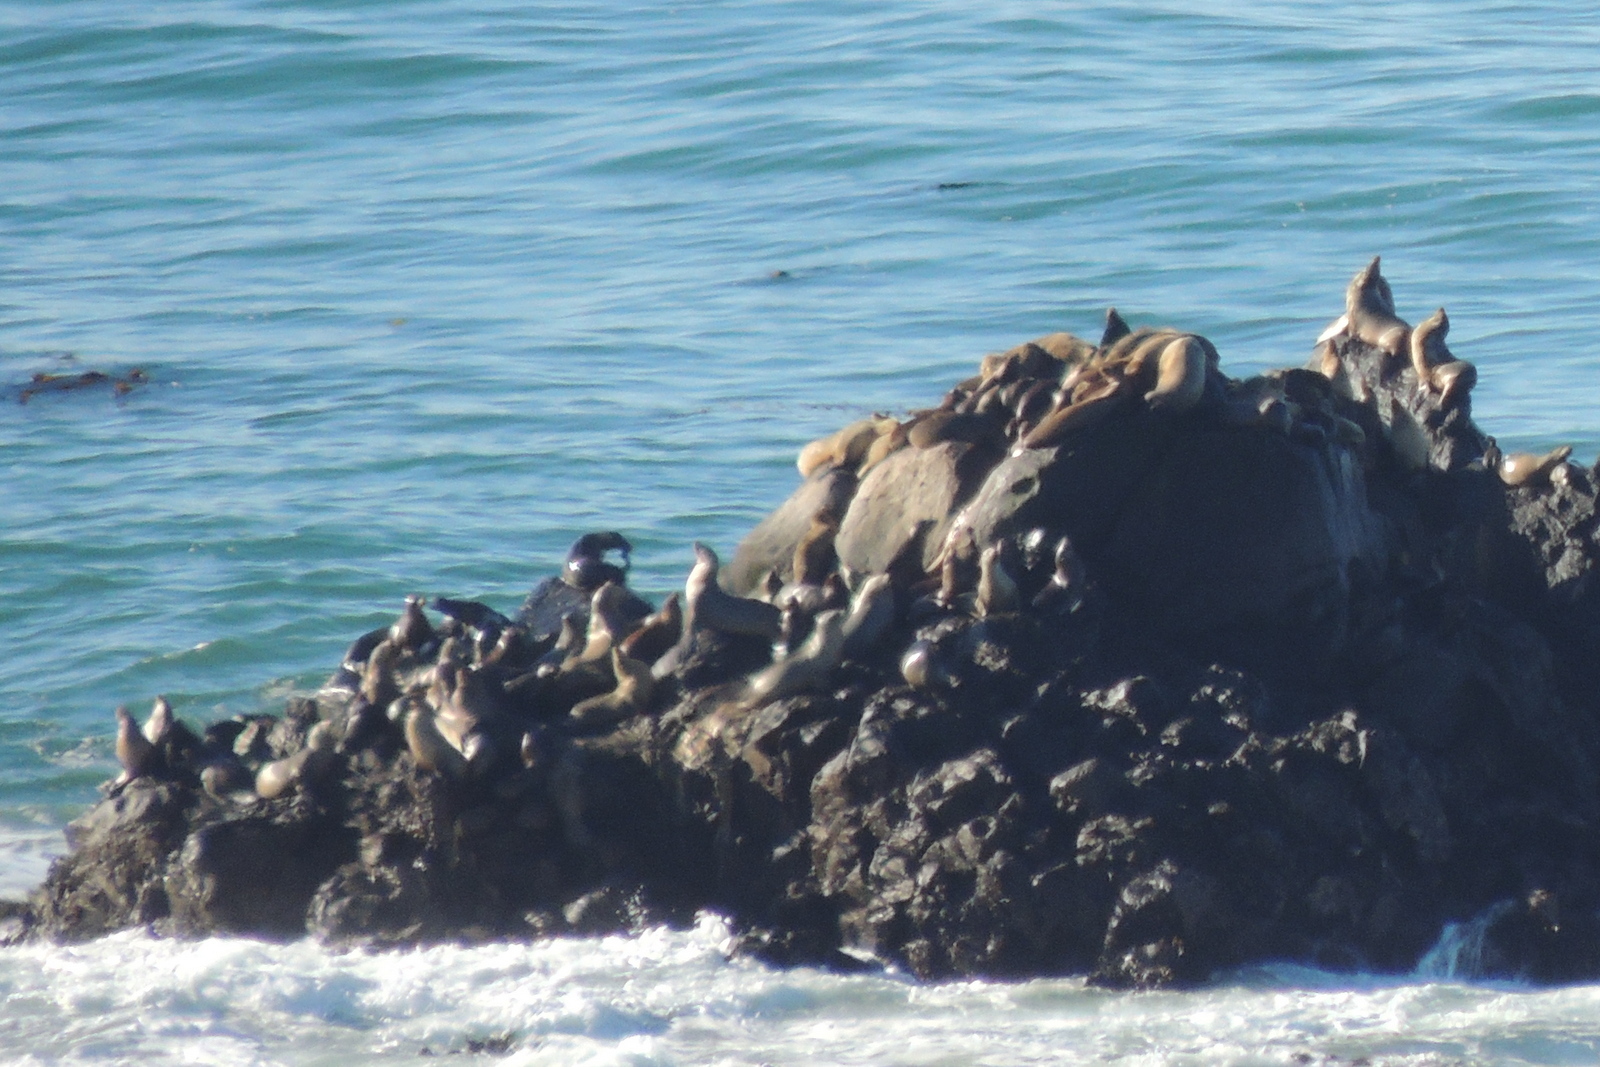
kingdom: Animalia
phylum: Chordata
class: Mammalia
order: Carnivora
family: Otariidae
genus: Zalophus
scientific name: Zalophus californianus
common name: California sea lion
